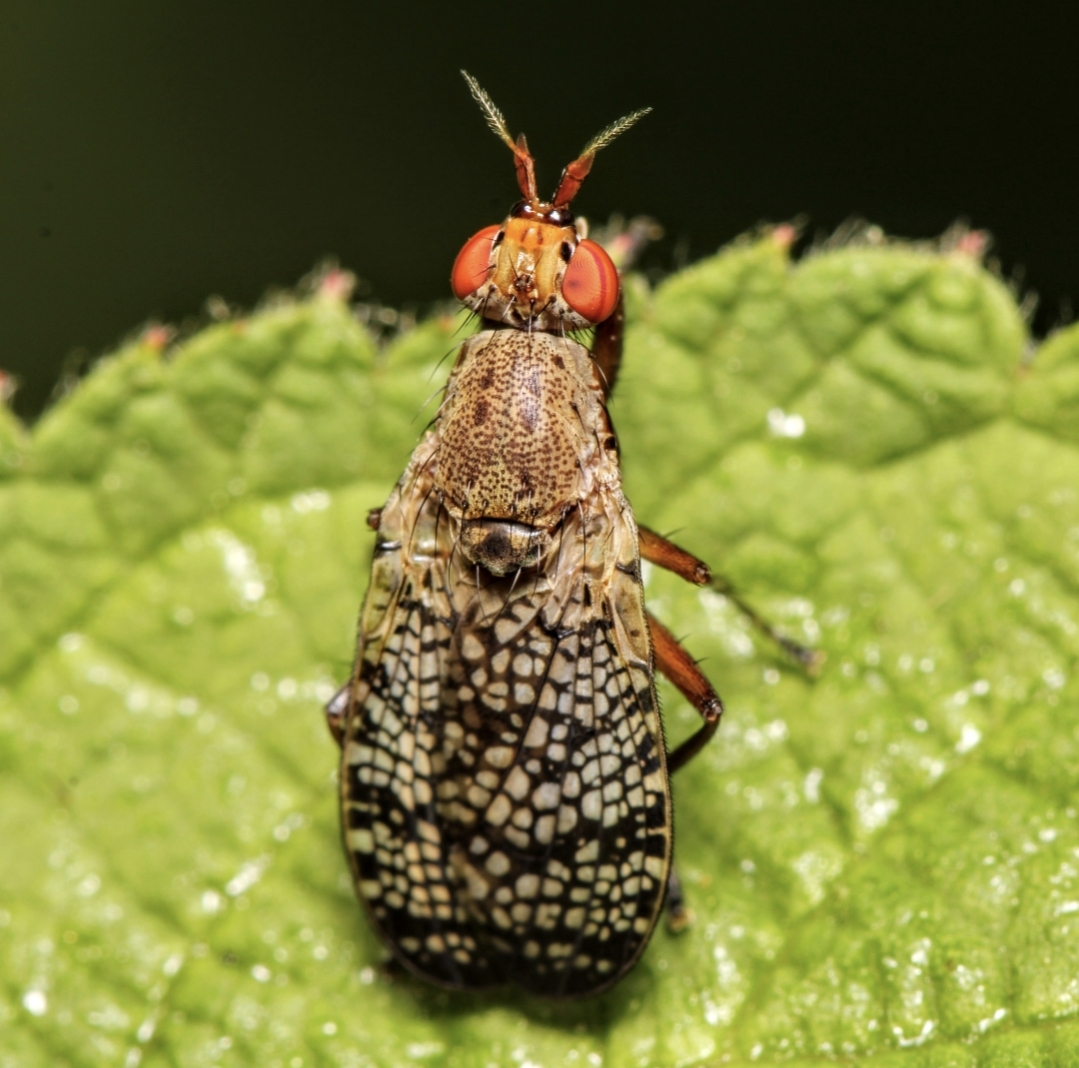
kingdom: Animalia
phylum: Arthropoda
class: Insecta
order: Diptera
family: Sciomyzidae
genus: Euthycera
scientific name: Euthycera flavescens
